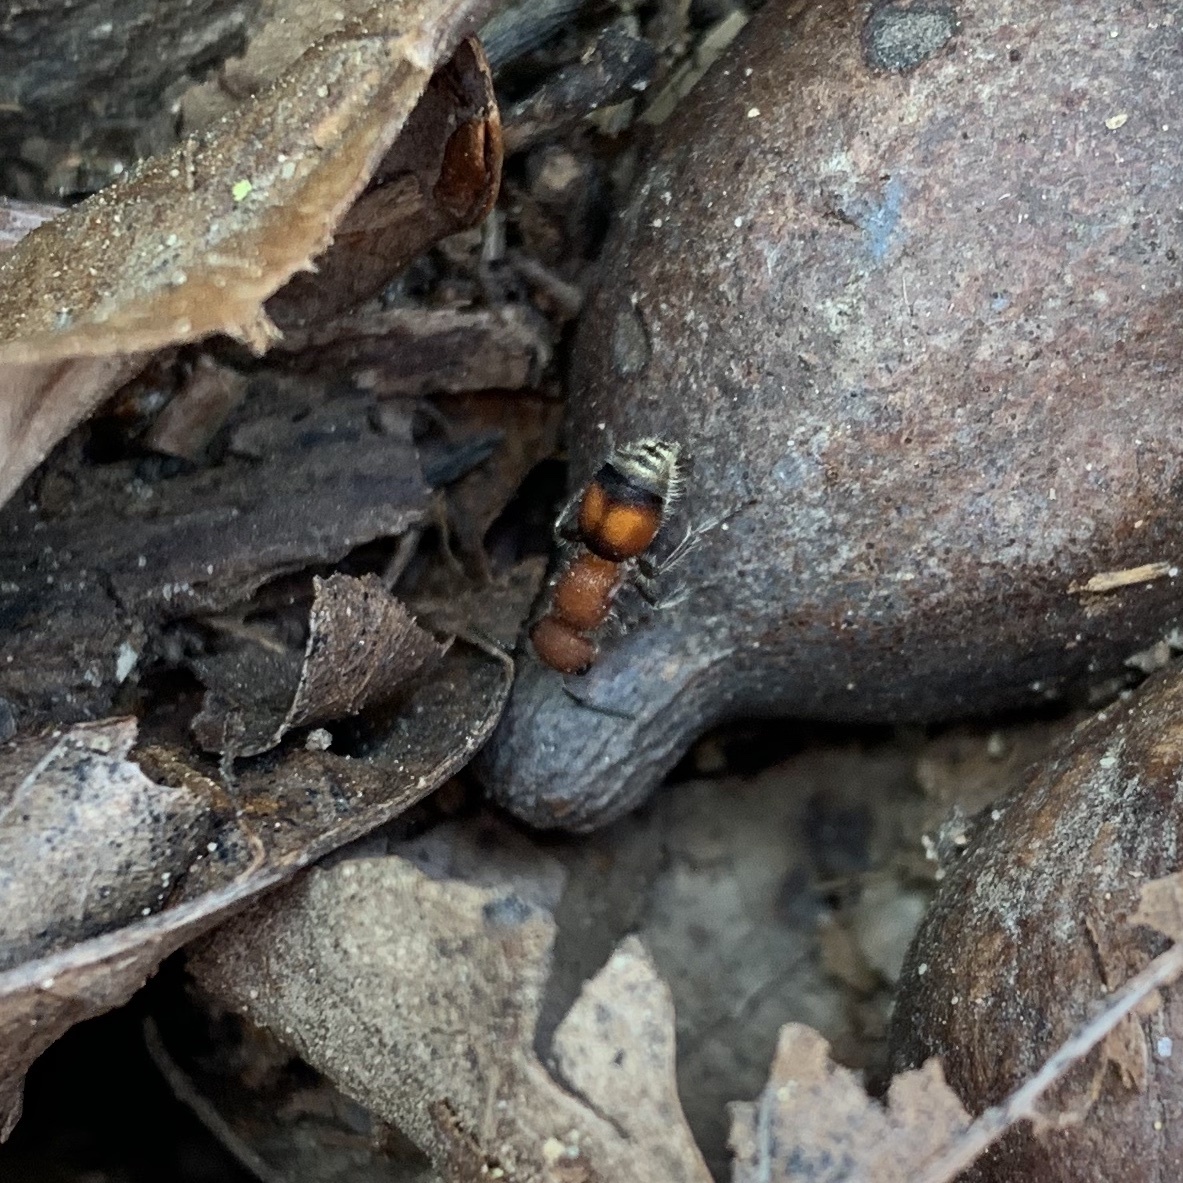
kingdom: Animalia
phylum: Arthropoda
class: Insecta
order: Hymenoptera
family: Mutillidae
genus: Pseudomethoca
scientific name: Pseudomethoca
